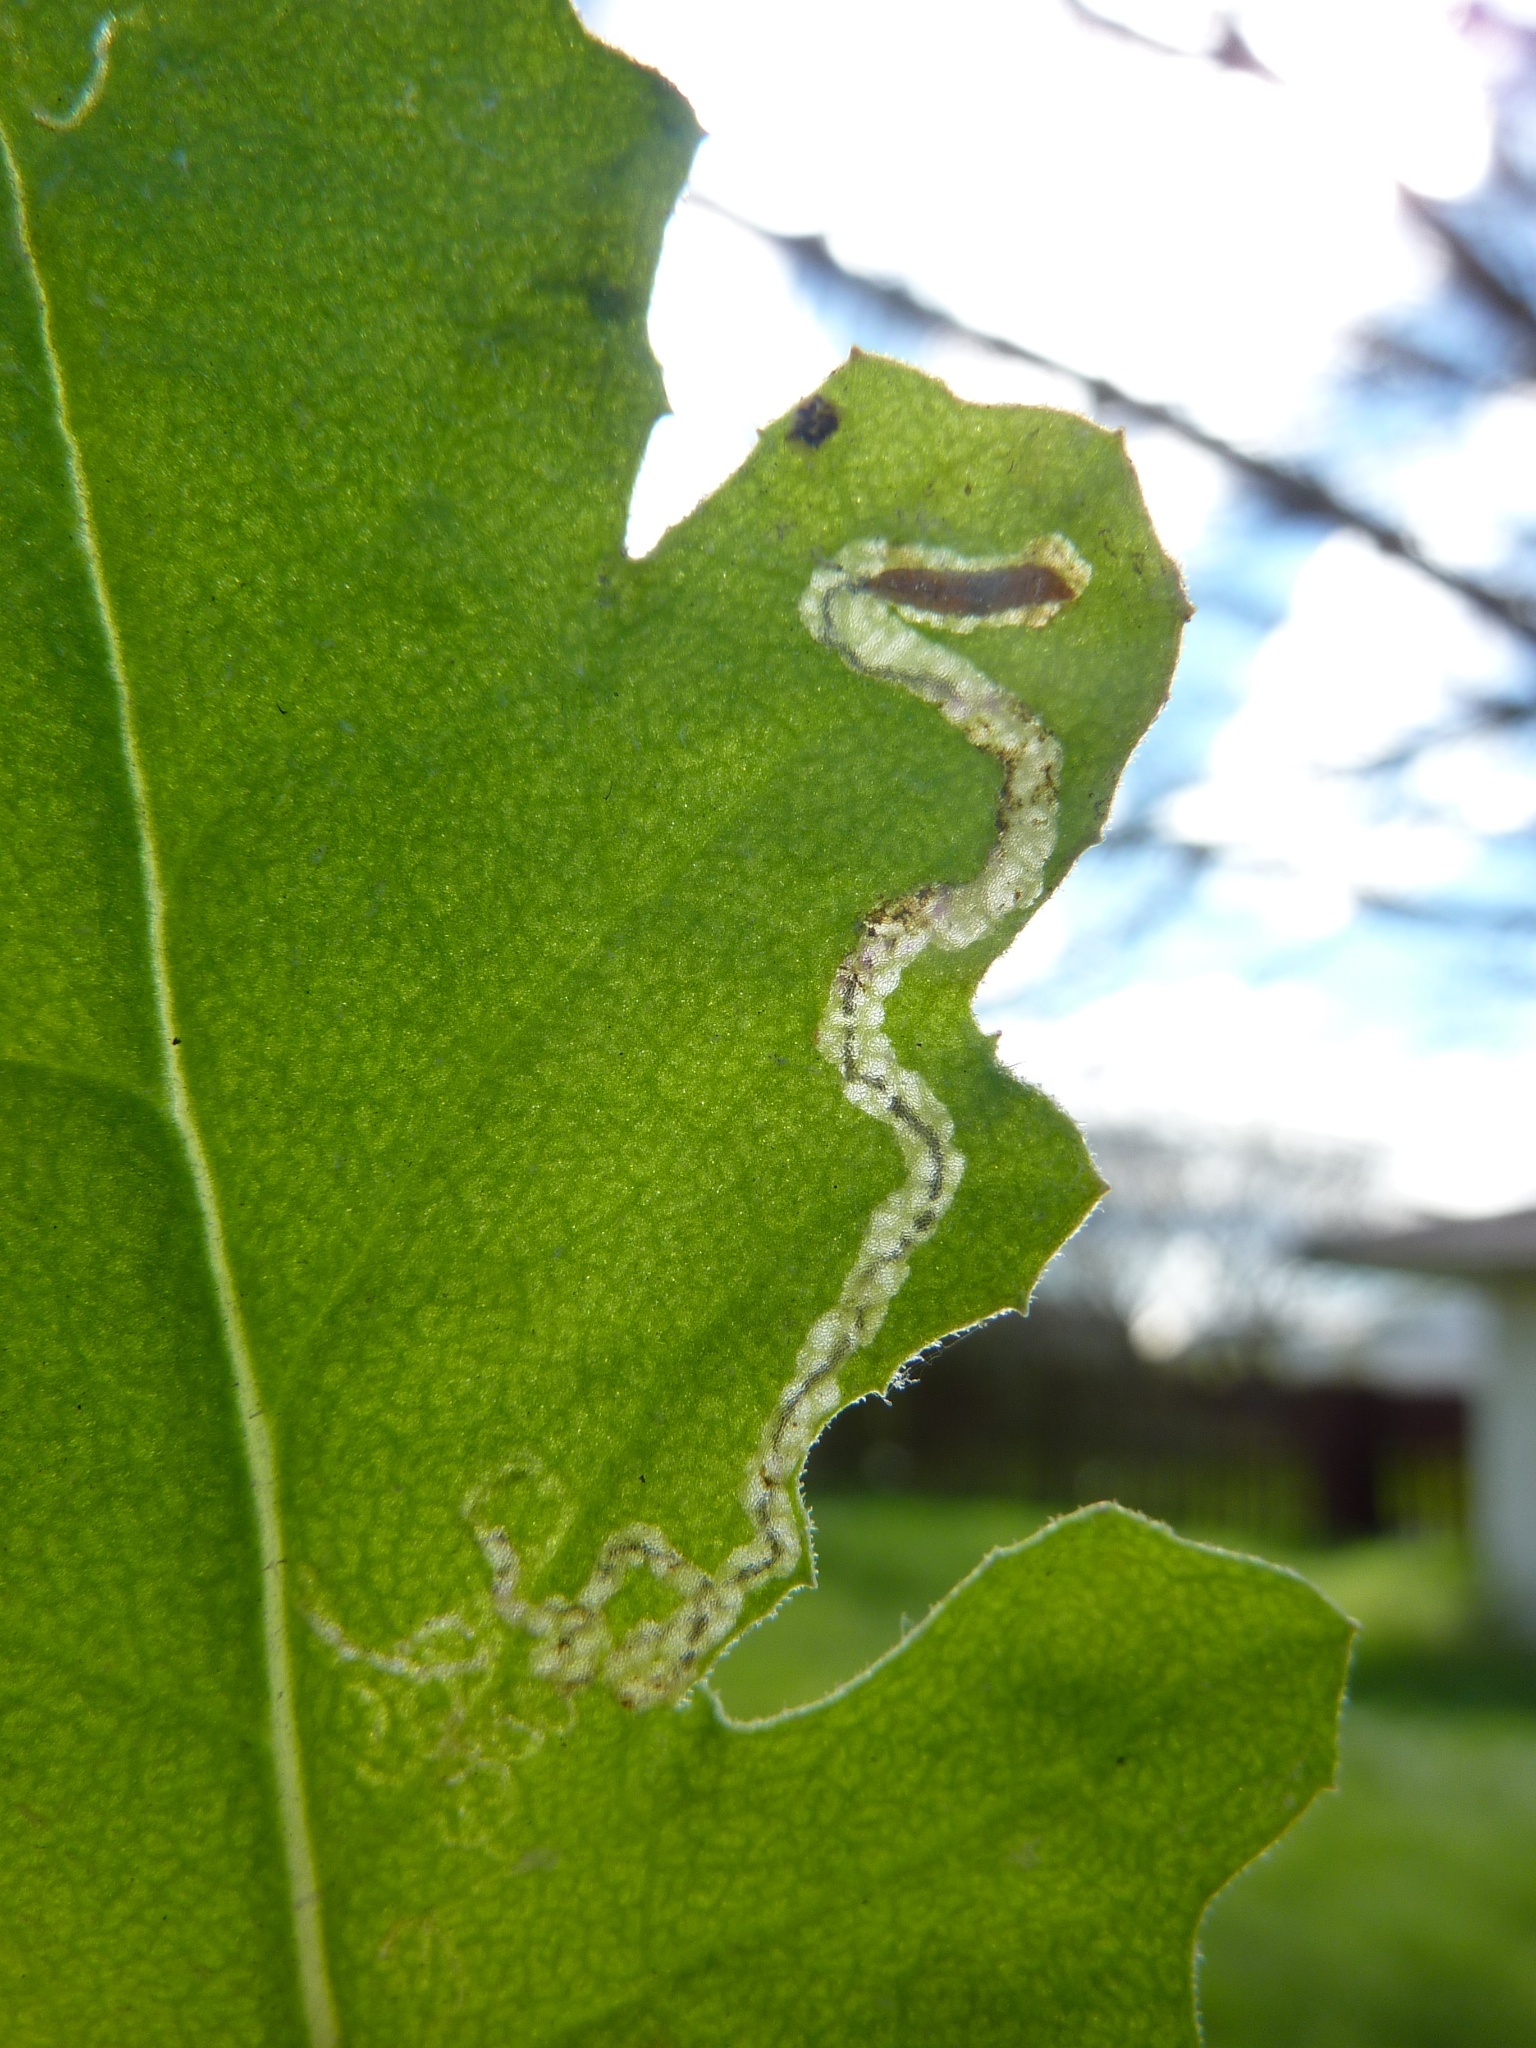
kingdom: Animalia
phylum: Arthropoda
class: Insecta
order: Lepidoptera
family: Nepticulidae
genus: Stigmella
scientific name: Stigmella ogygia
